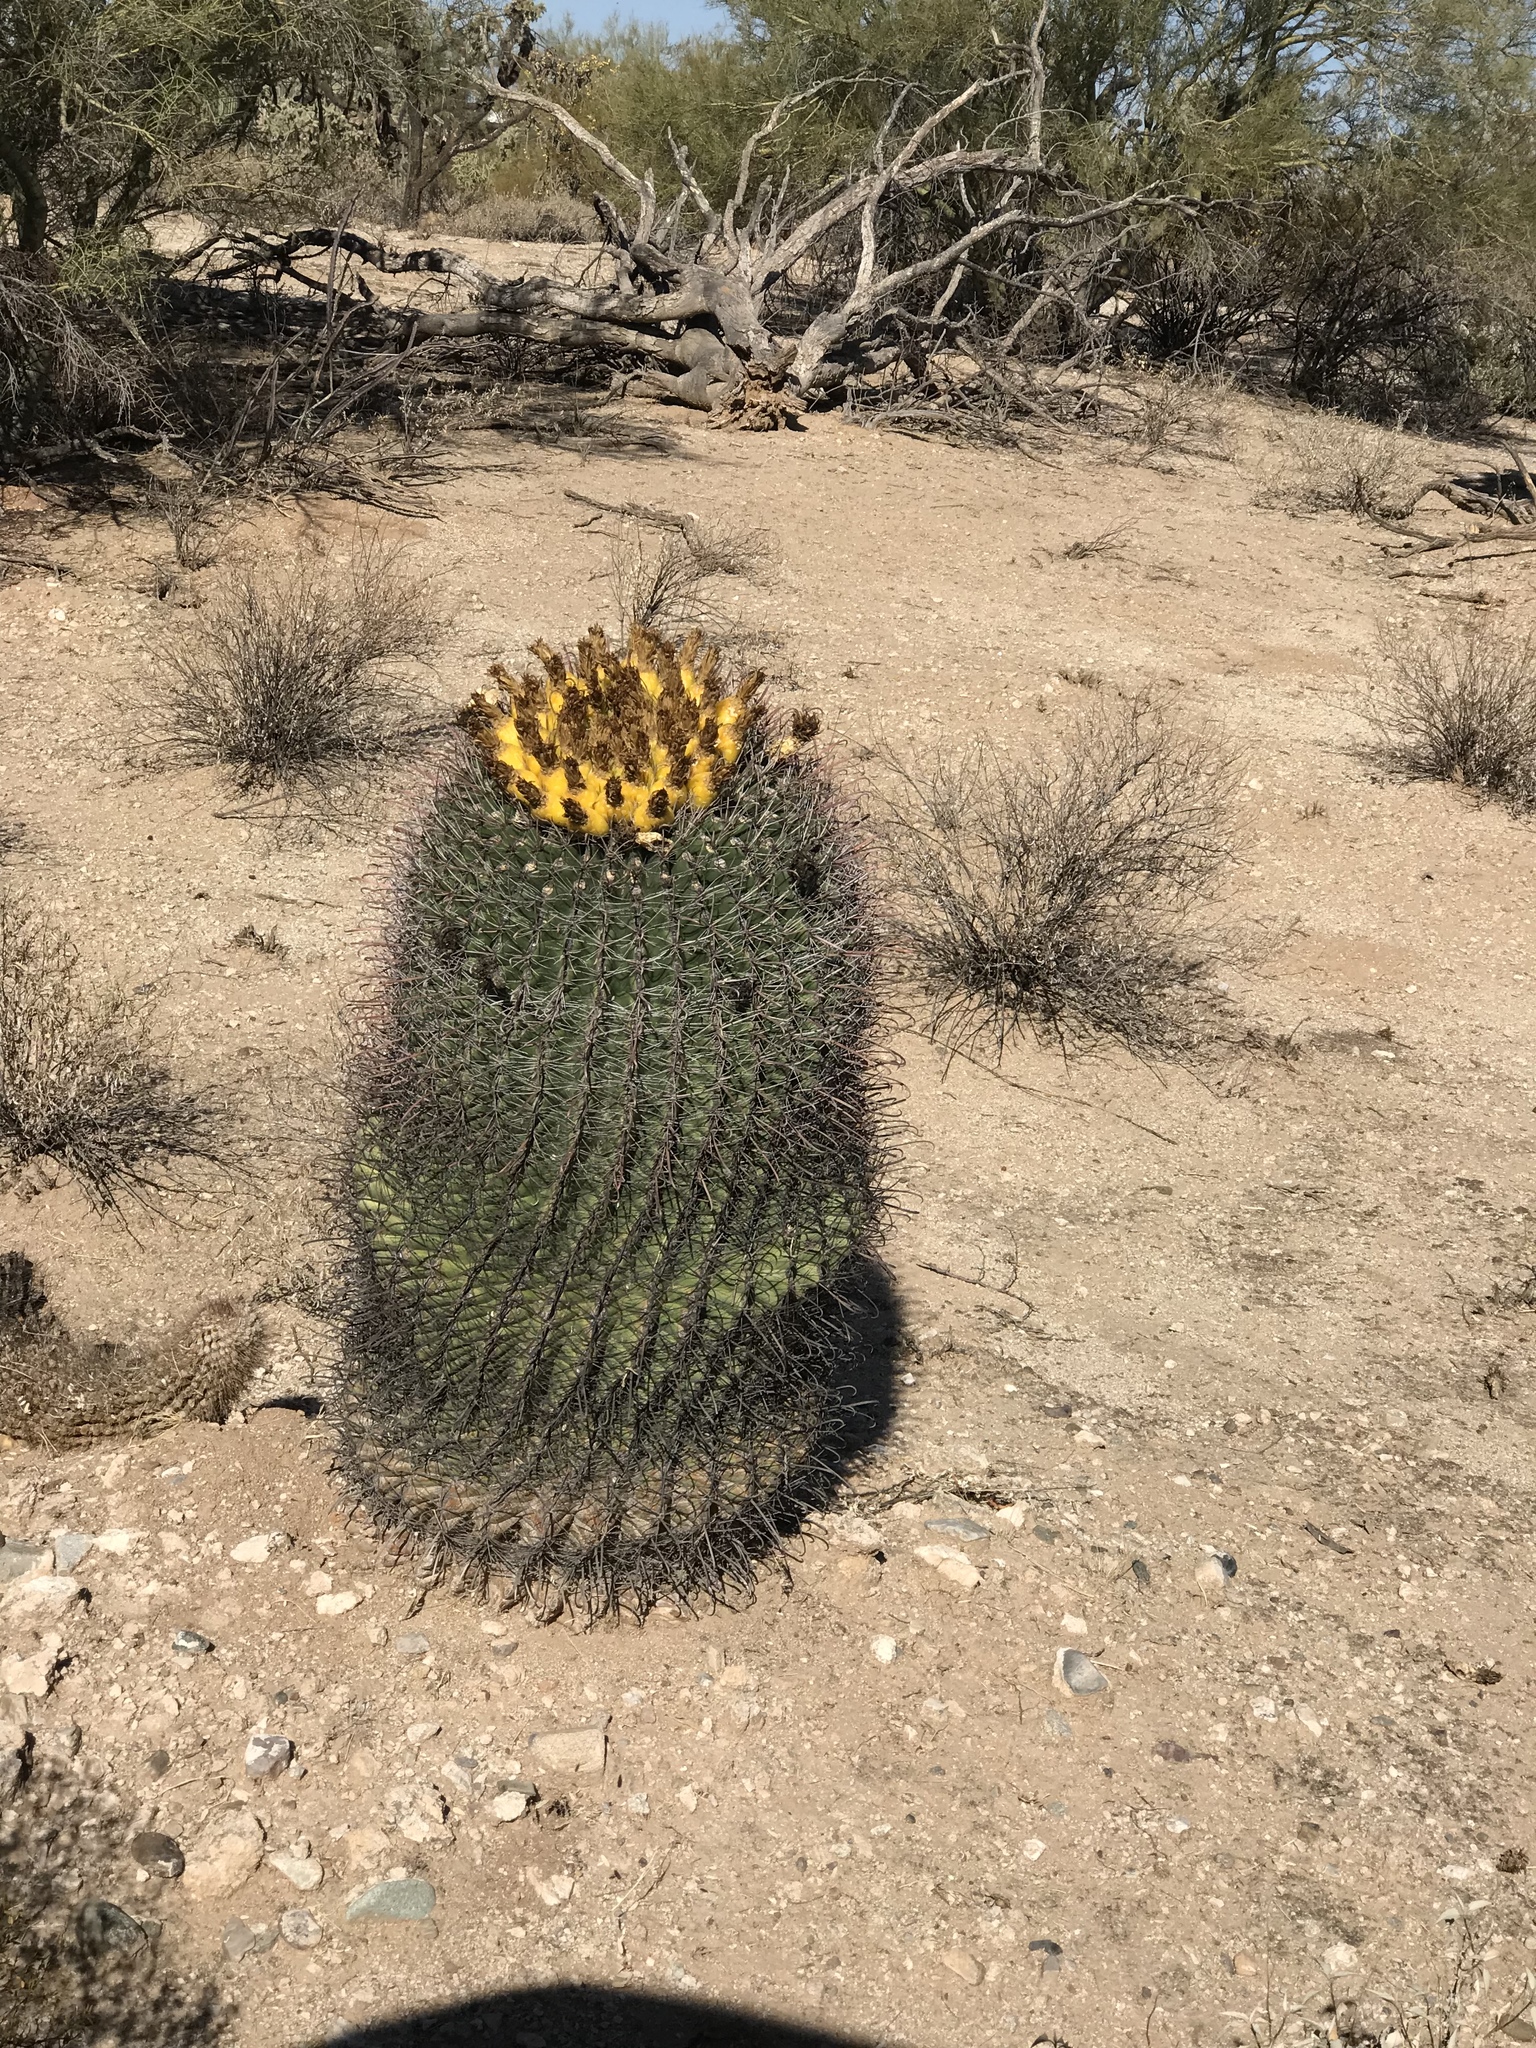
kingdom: Plantae
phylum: Tracheophyta
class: Magnoliopsida
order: Caryophyllales
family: Cactaceae
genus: Ferocactus
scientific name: Ferocactus wislizeni
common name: Candy barrel cactus
